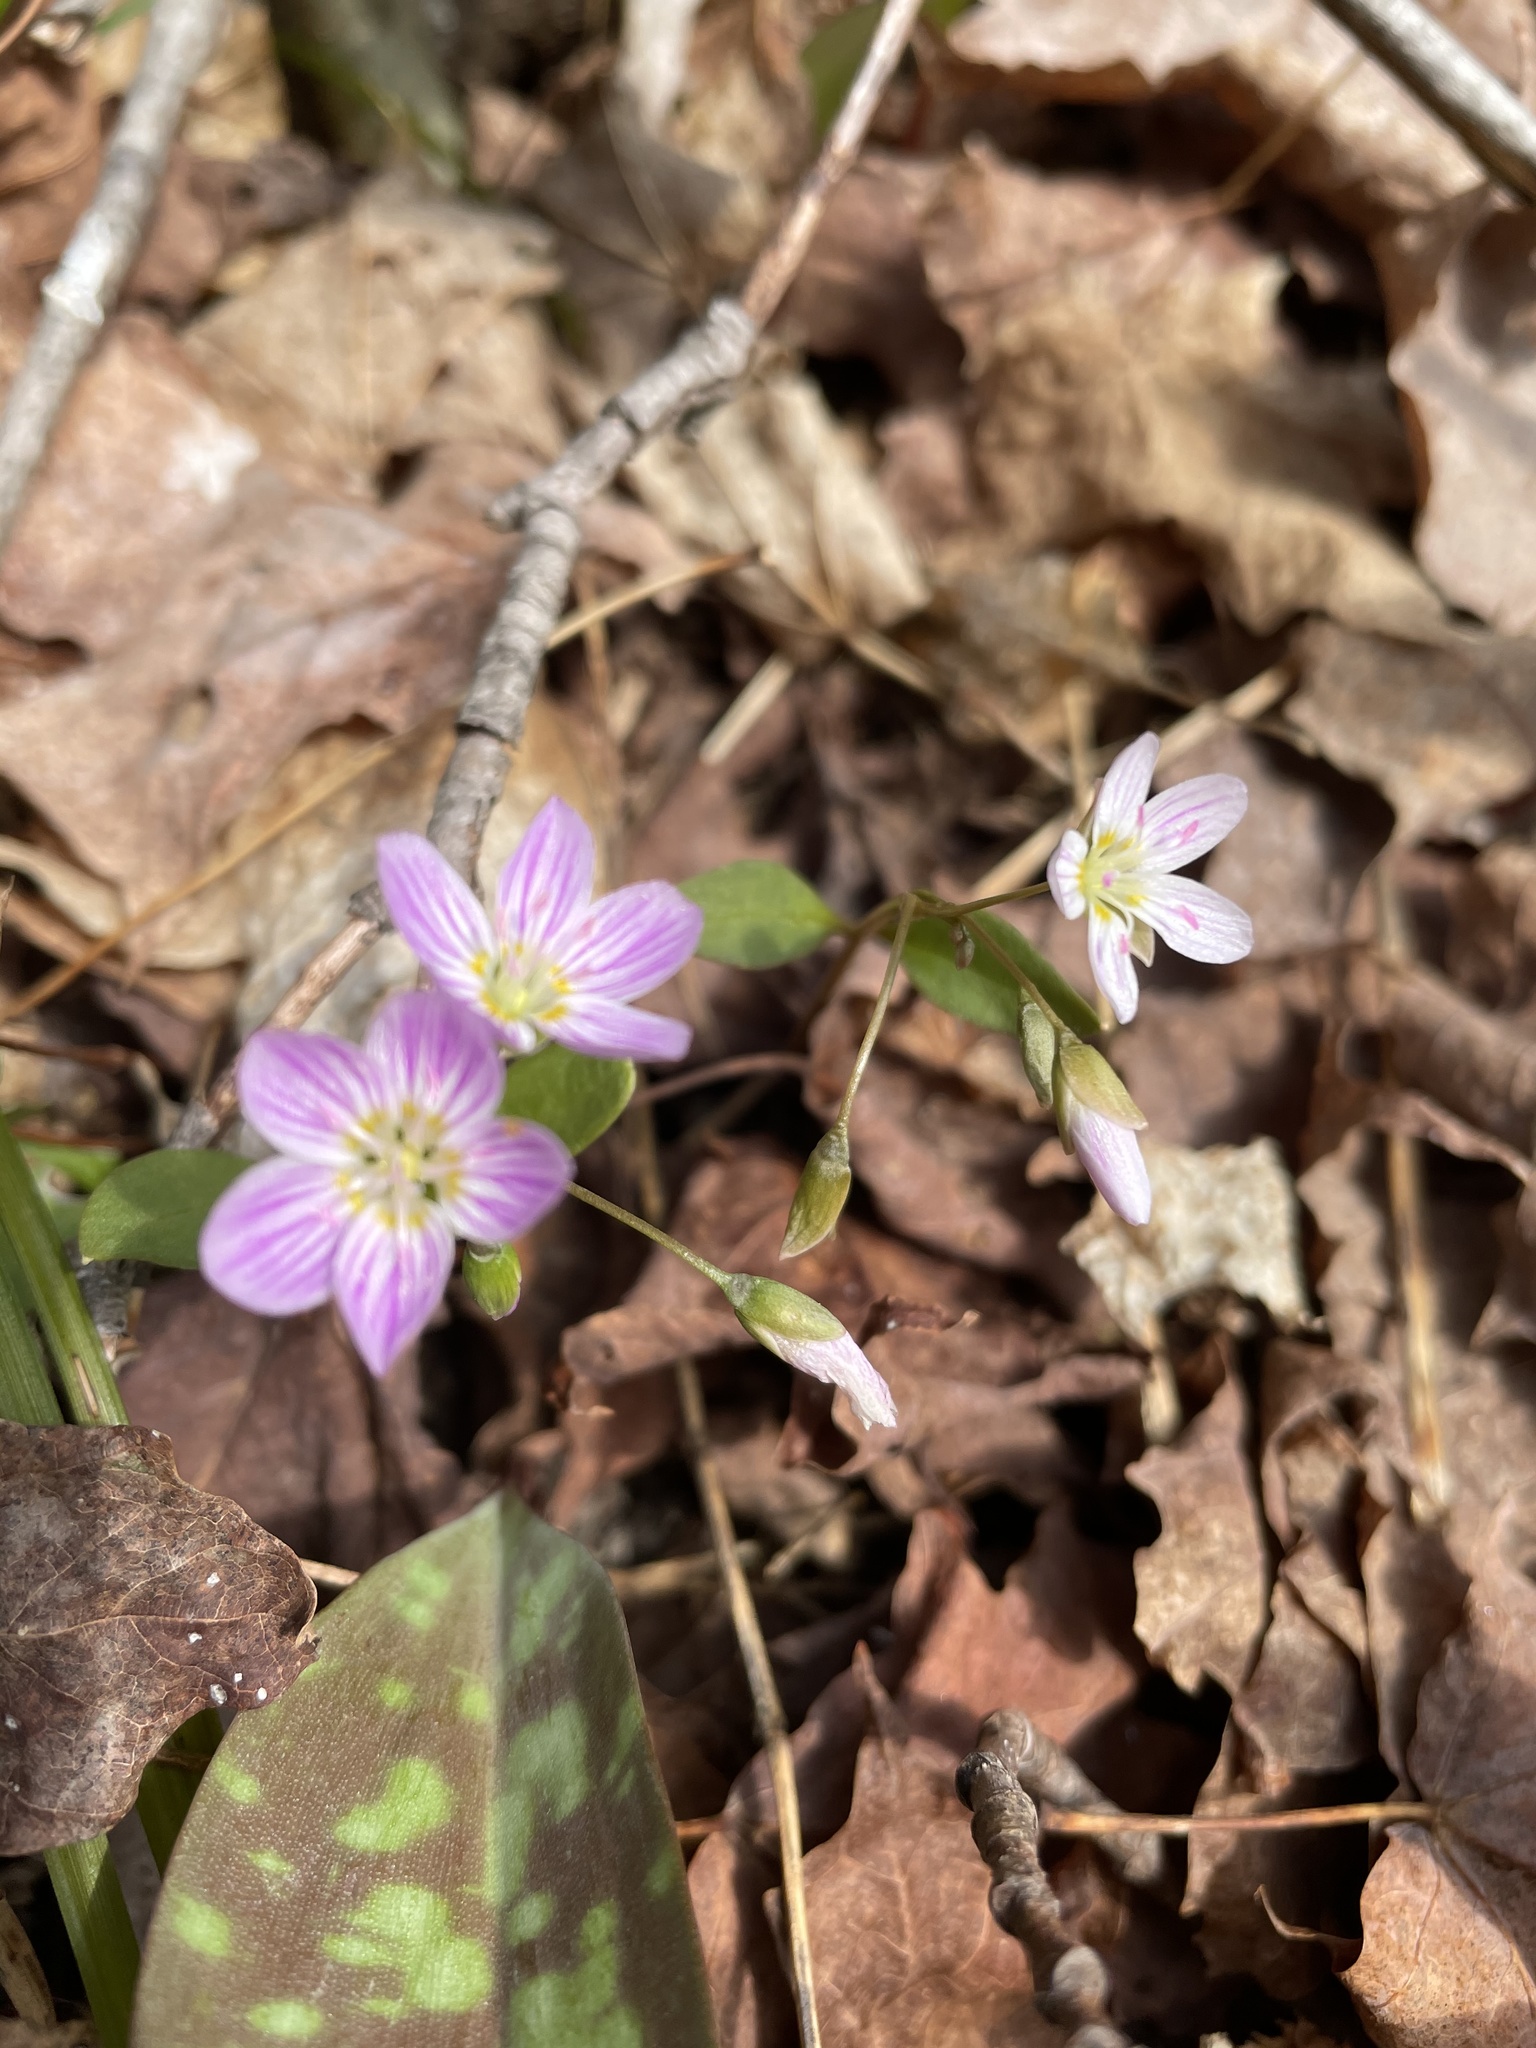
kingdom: Plantae
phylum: Tracheophyta
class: Magnoliopsida
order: Caryophyllales
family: Montiaceae
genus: Claytonia
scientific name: Claytonia caroliniana
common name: Carolina spring beauty
